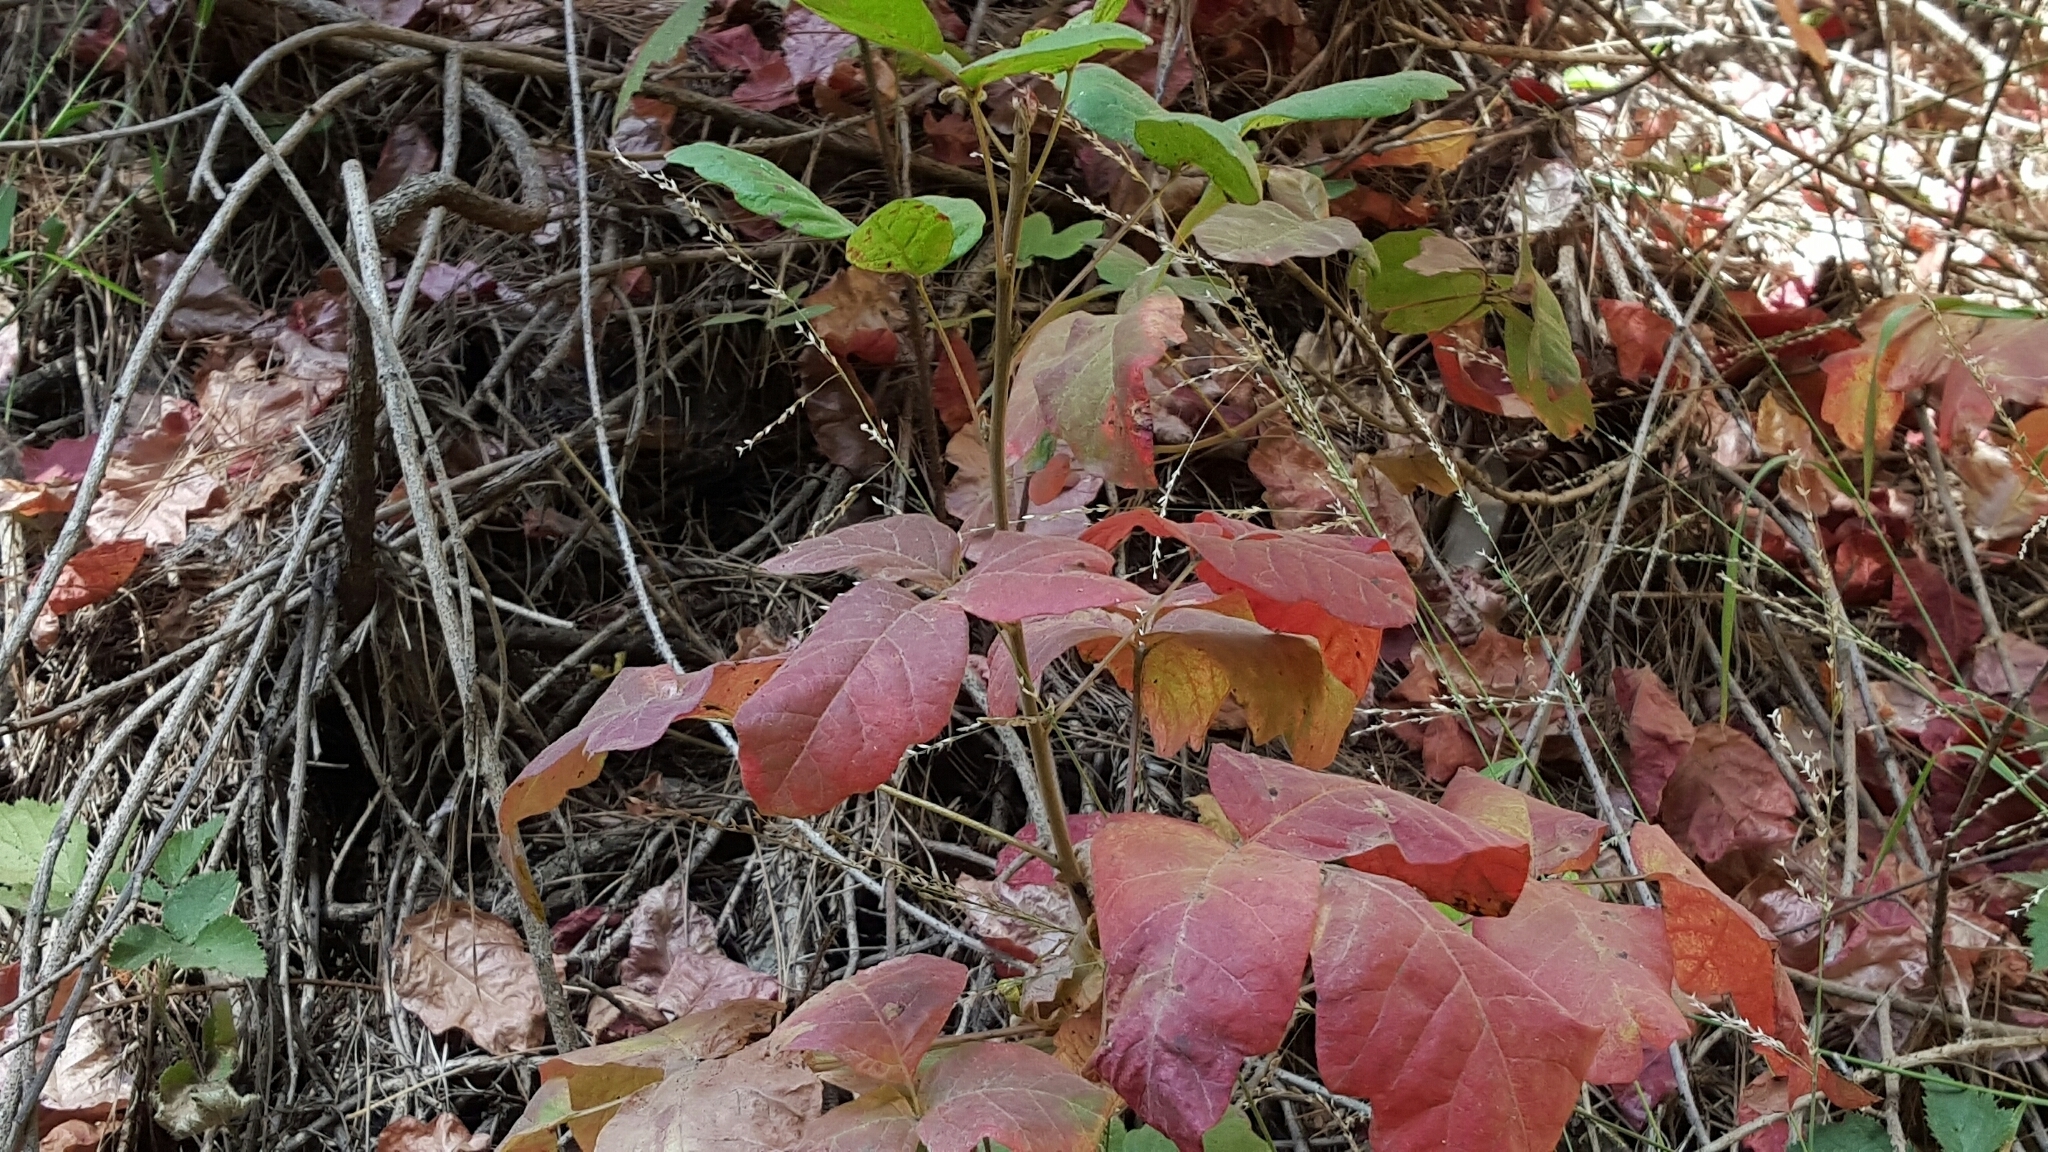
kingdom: Plantae
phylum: Tracheophyta
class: Magnoliopsida
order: Sapindales
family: Anacardiaceae
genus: Toxicodendron
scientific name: Toxicodendron diversilobum
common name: Pacific poison-oak
